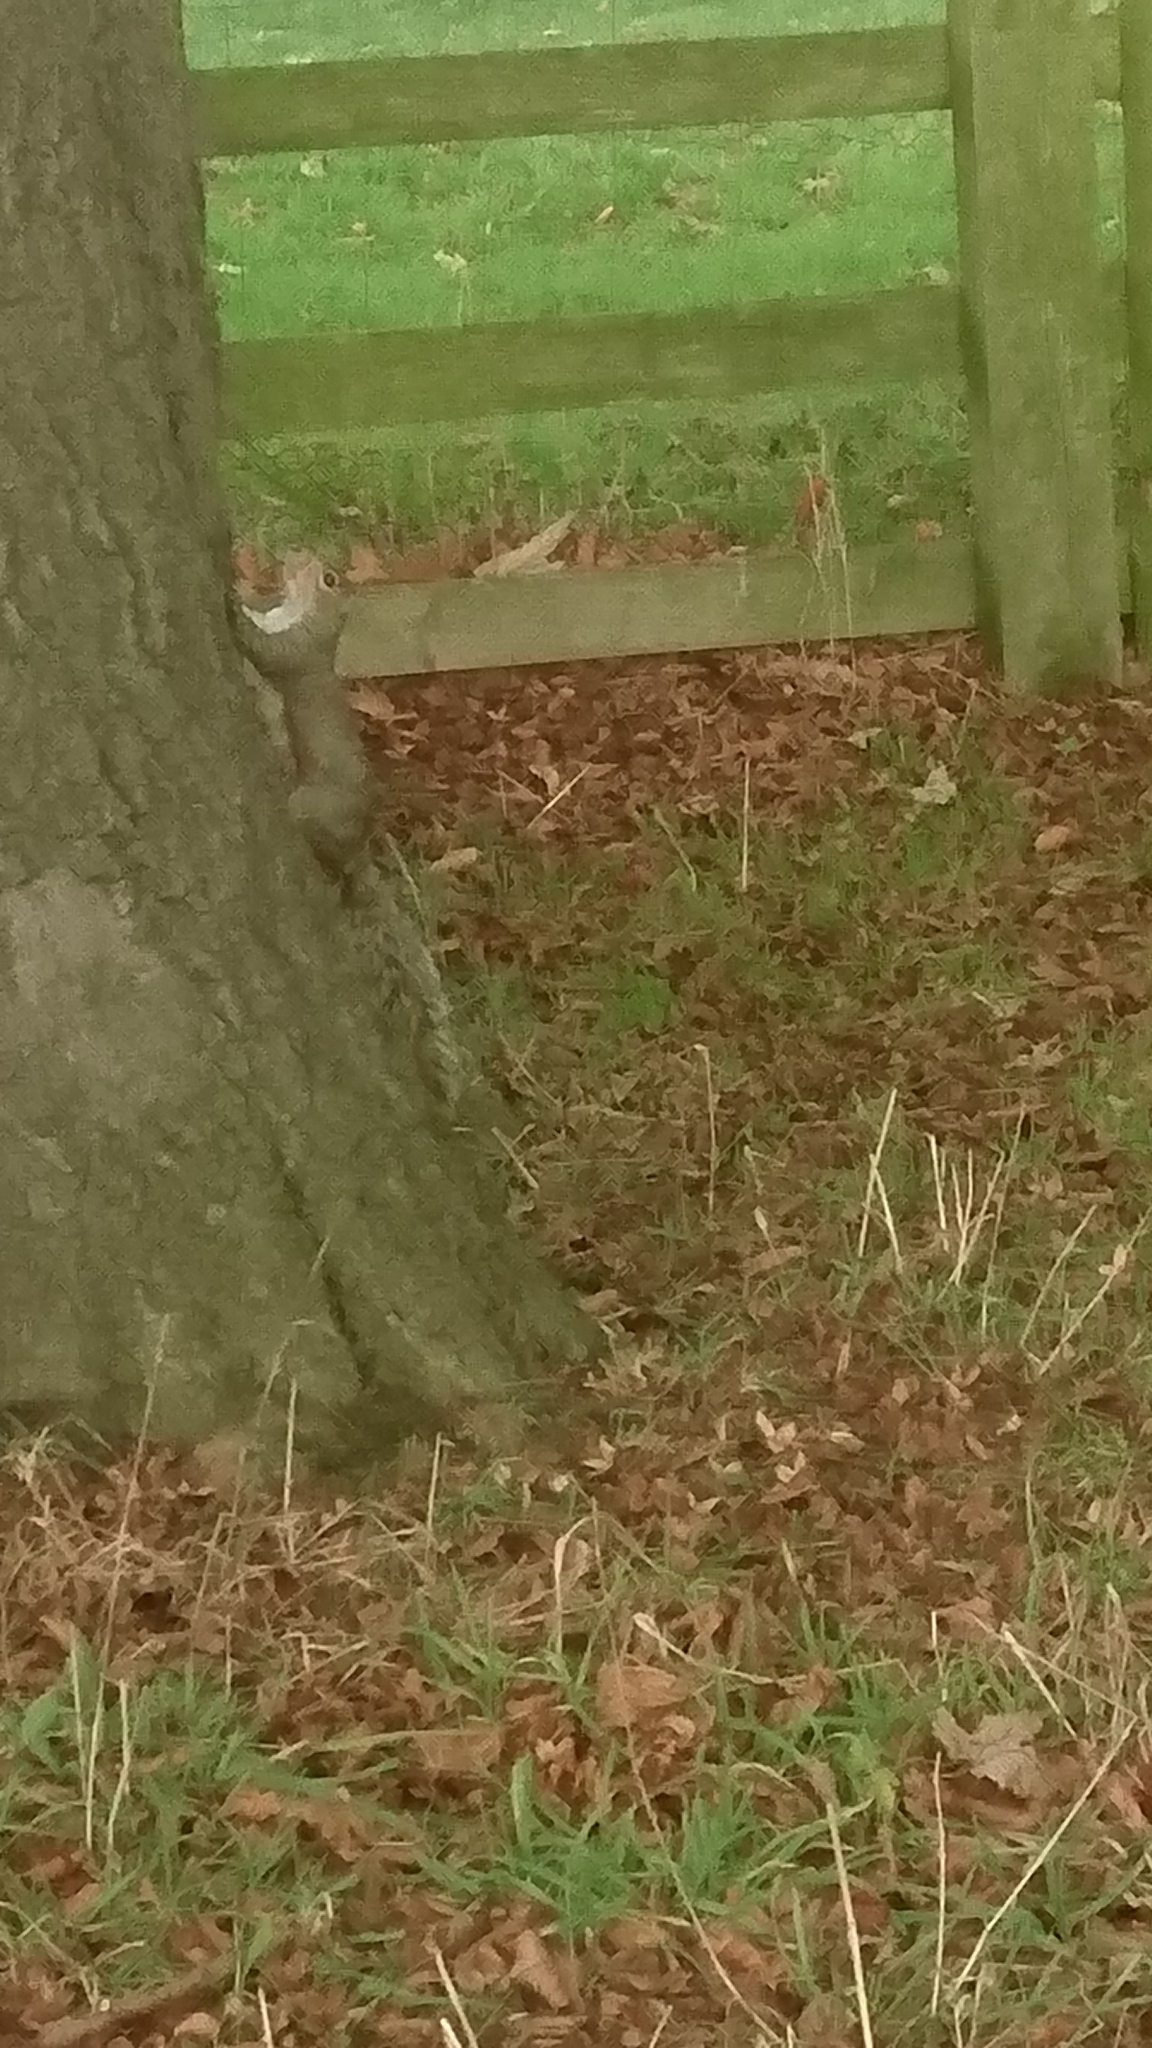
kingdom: Animalia
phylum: Chordata
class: Mammalia
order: Rodentia
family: Sciuridae
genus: Sciurus
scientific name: Sciurus carolinensis
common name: Eastern gray squirrel
